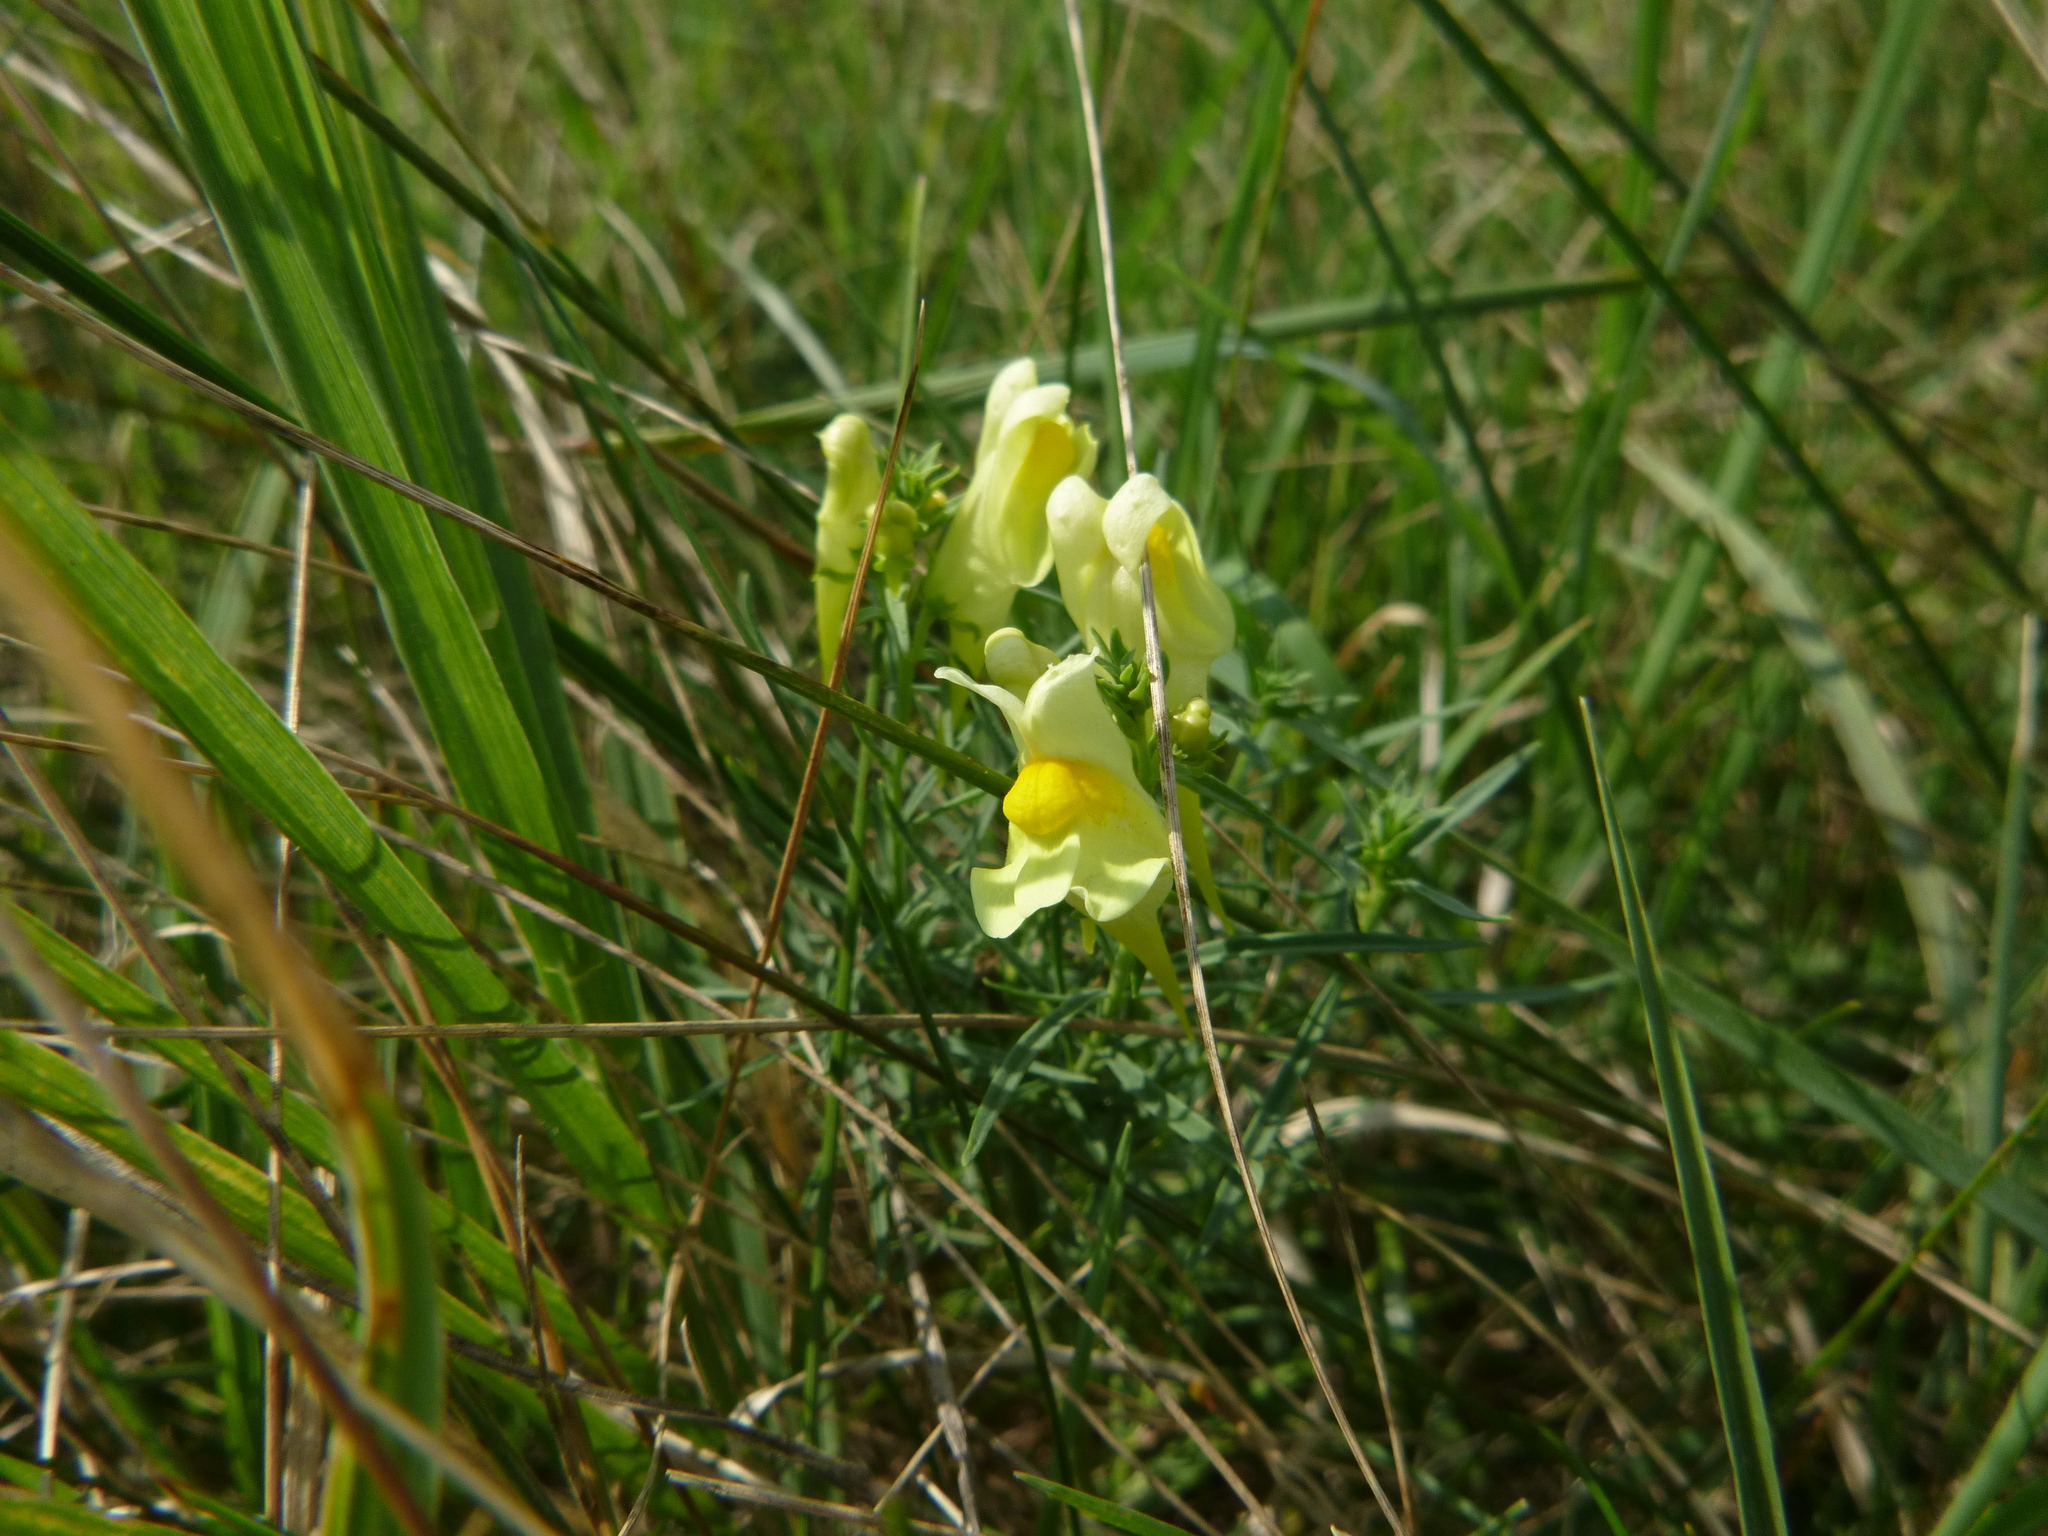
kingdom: Plantae
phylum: Tracheophyta
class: Magnoliopsida
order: Lamiales
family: Plantaginaceae
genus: Linaria
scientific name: Linaria vulgaris
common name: Butter and eggs
